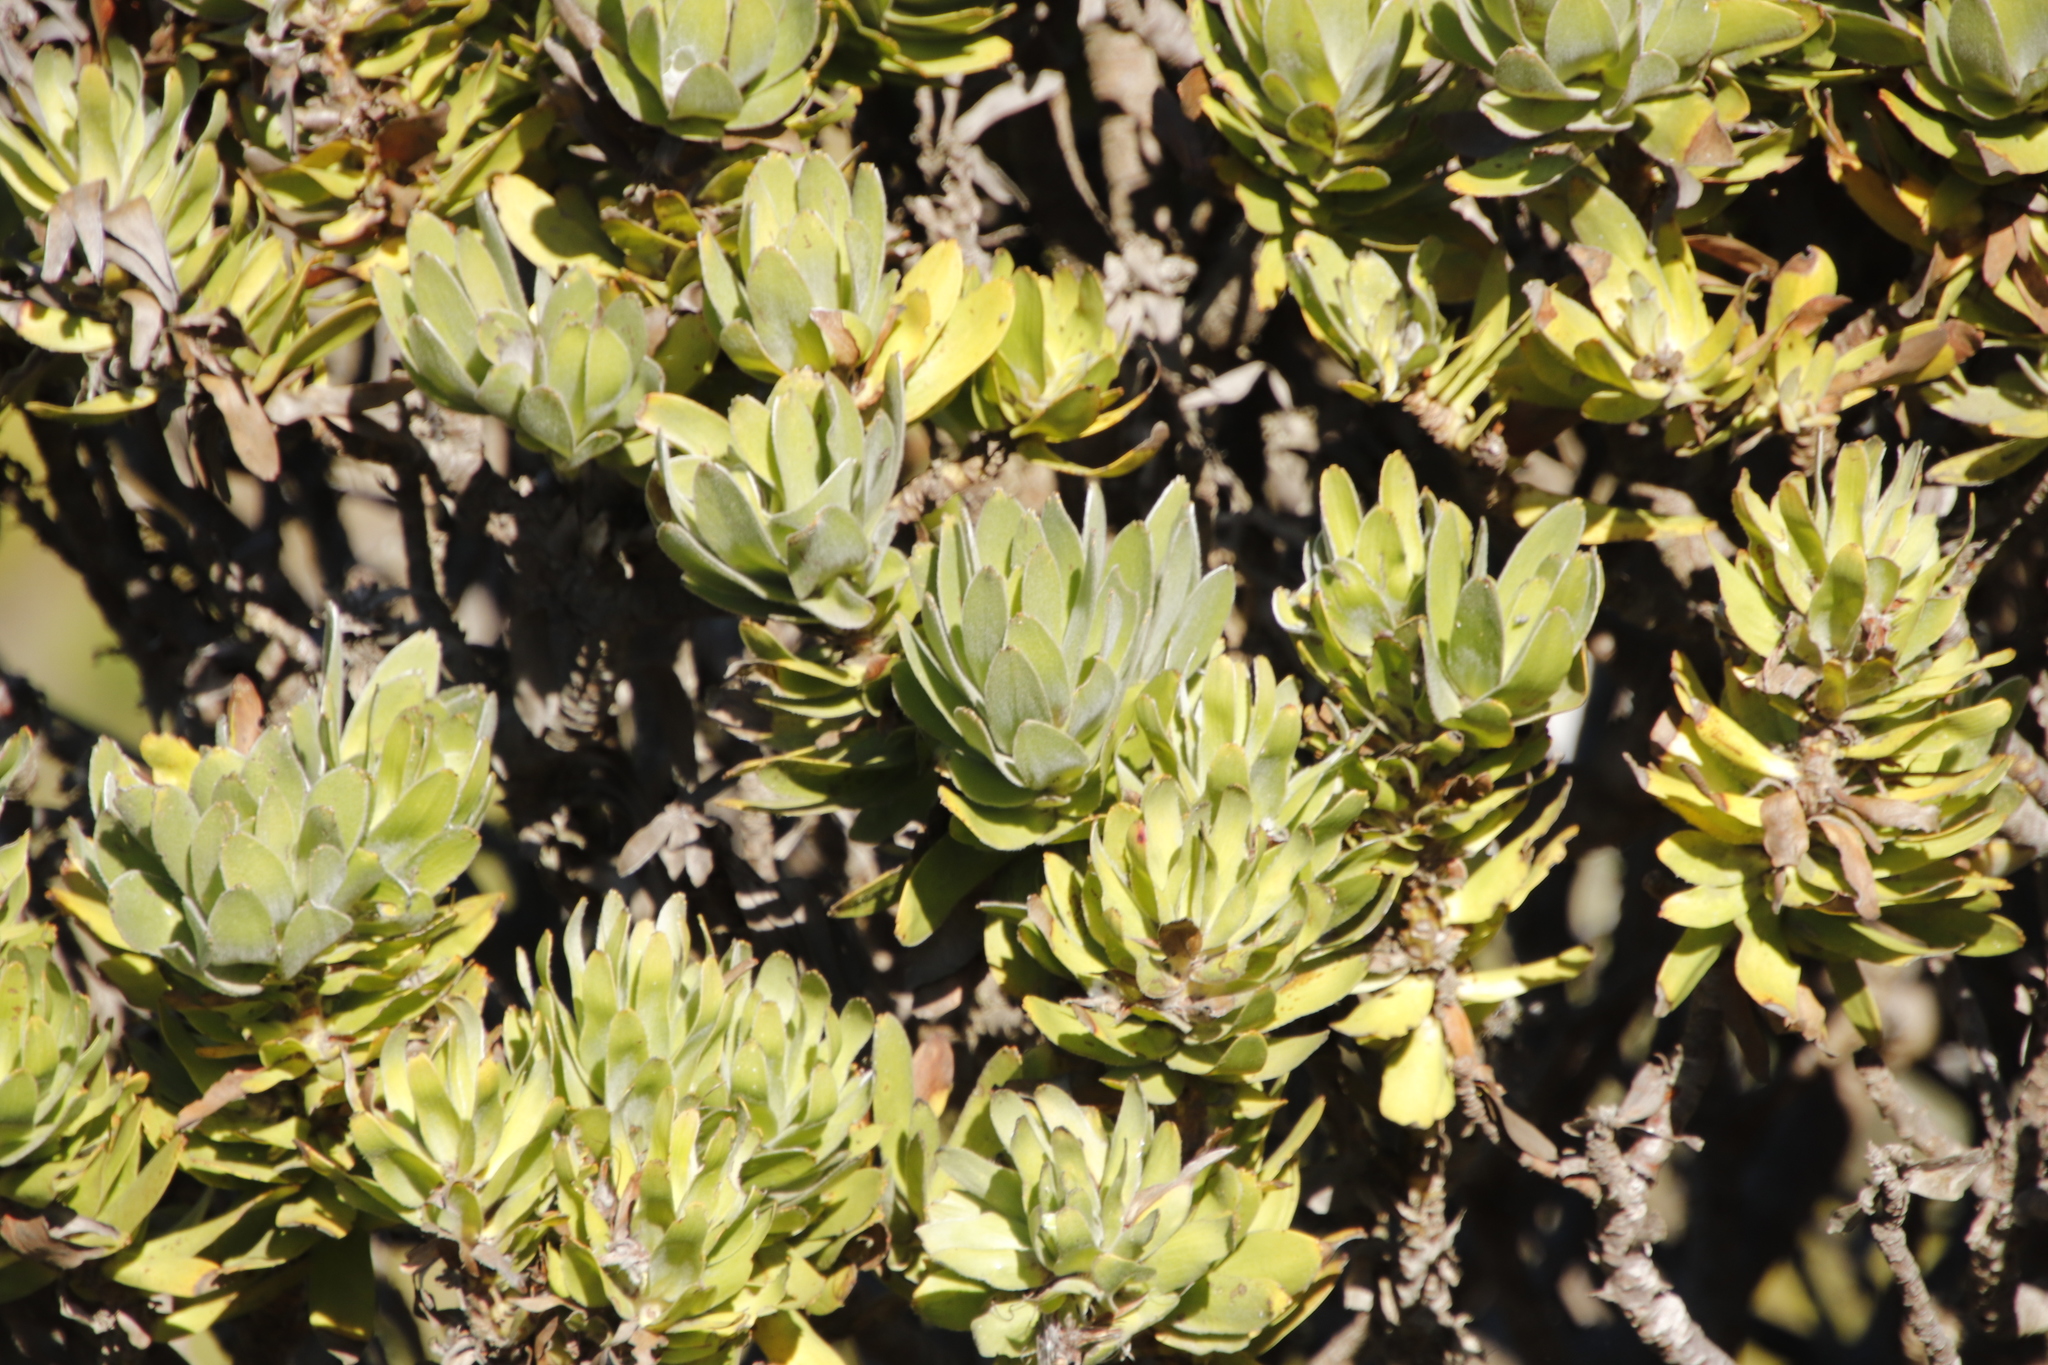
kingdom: Plantae
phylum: Tracheophyta
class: Magnoliopsida
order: Proteales
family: Proteaceae
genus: Mimetes
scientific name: Mimetes fimbriifolius
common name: Fringed bottlebrush
